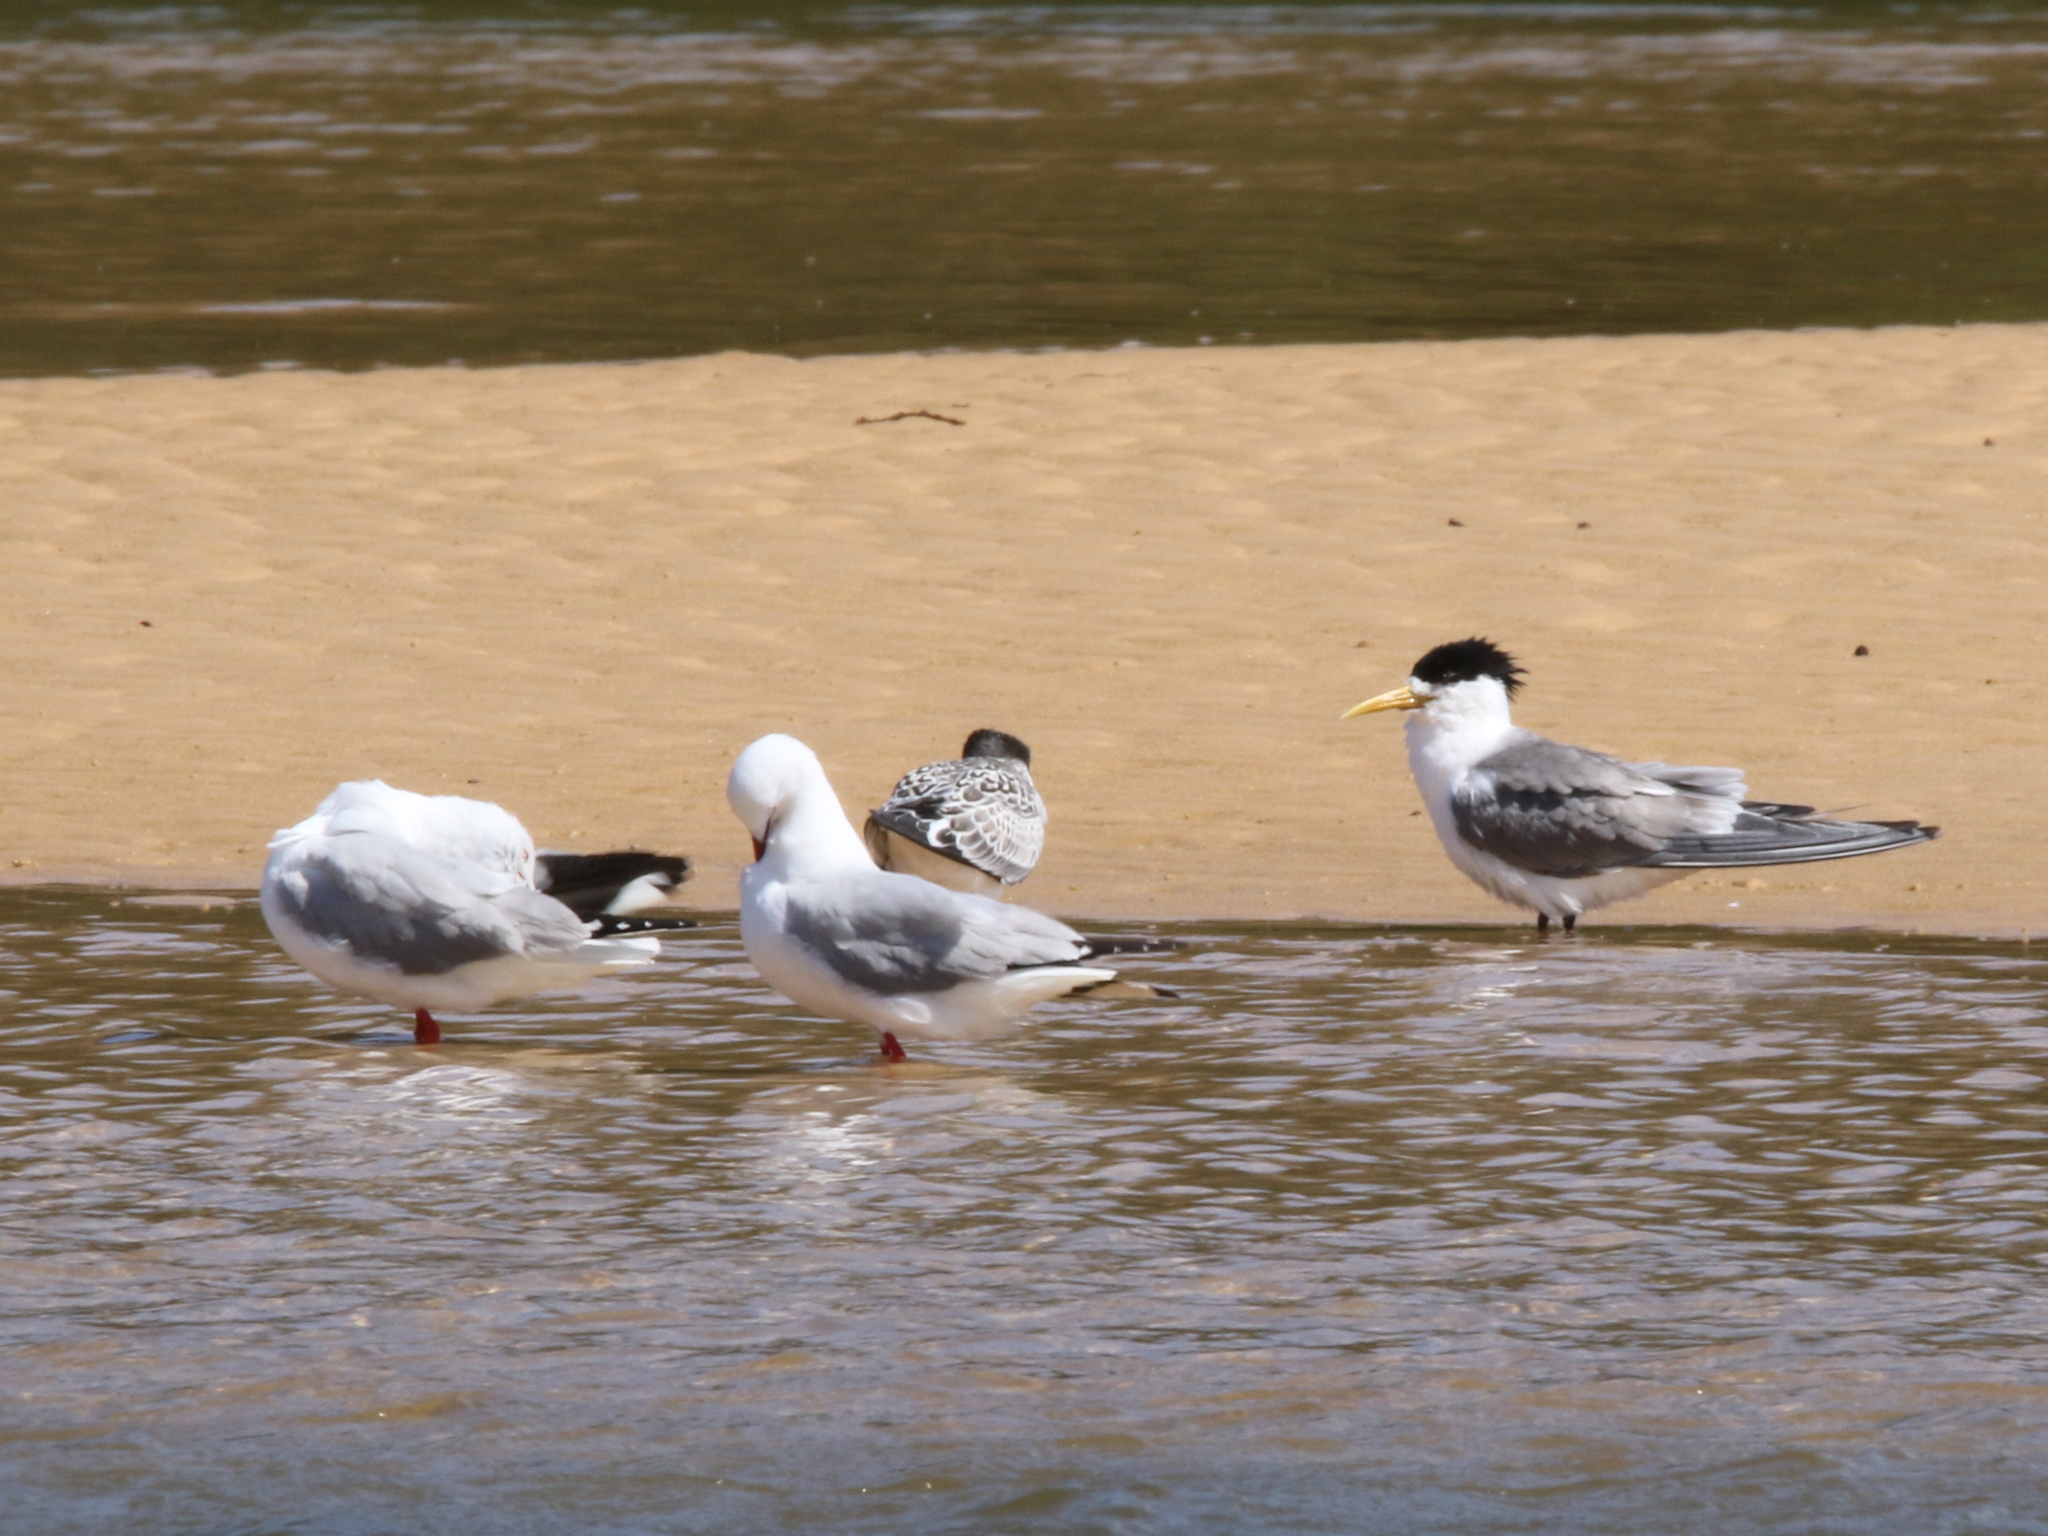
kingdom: Animalia
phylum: Chordata
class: Aves
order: Charadriiformes
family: Laridae
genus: Chroicocephalus
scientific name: Chroicocephalus novaehollandiae
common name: Silver gull
